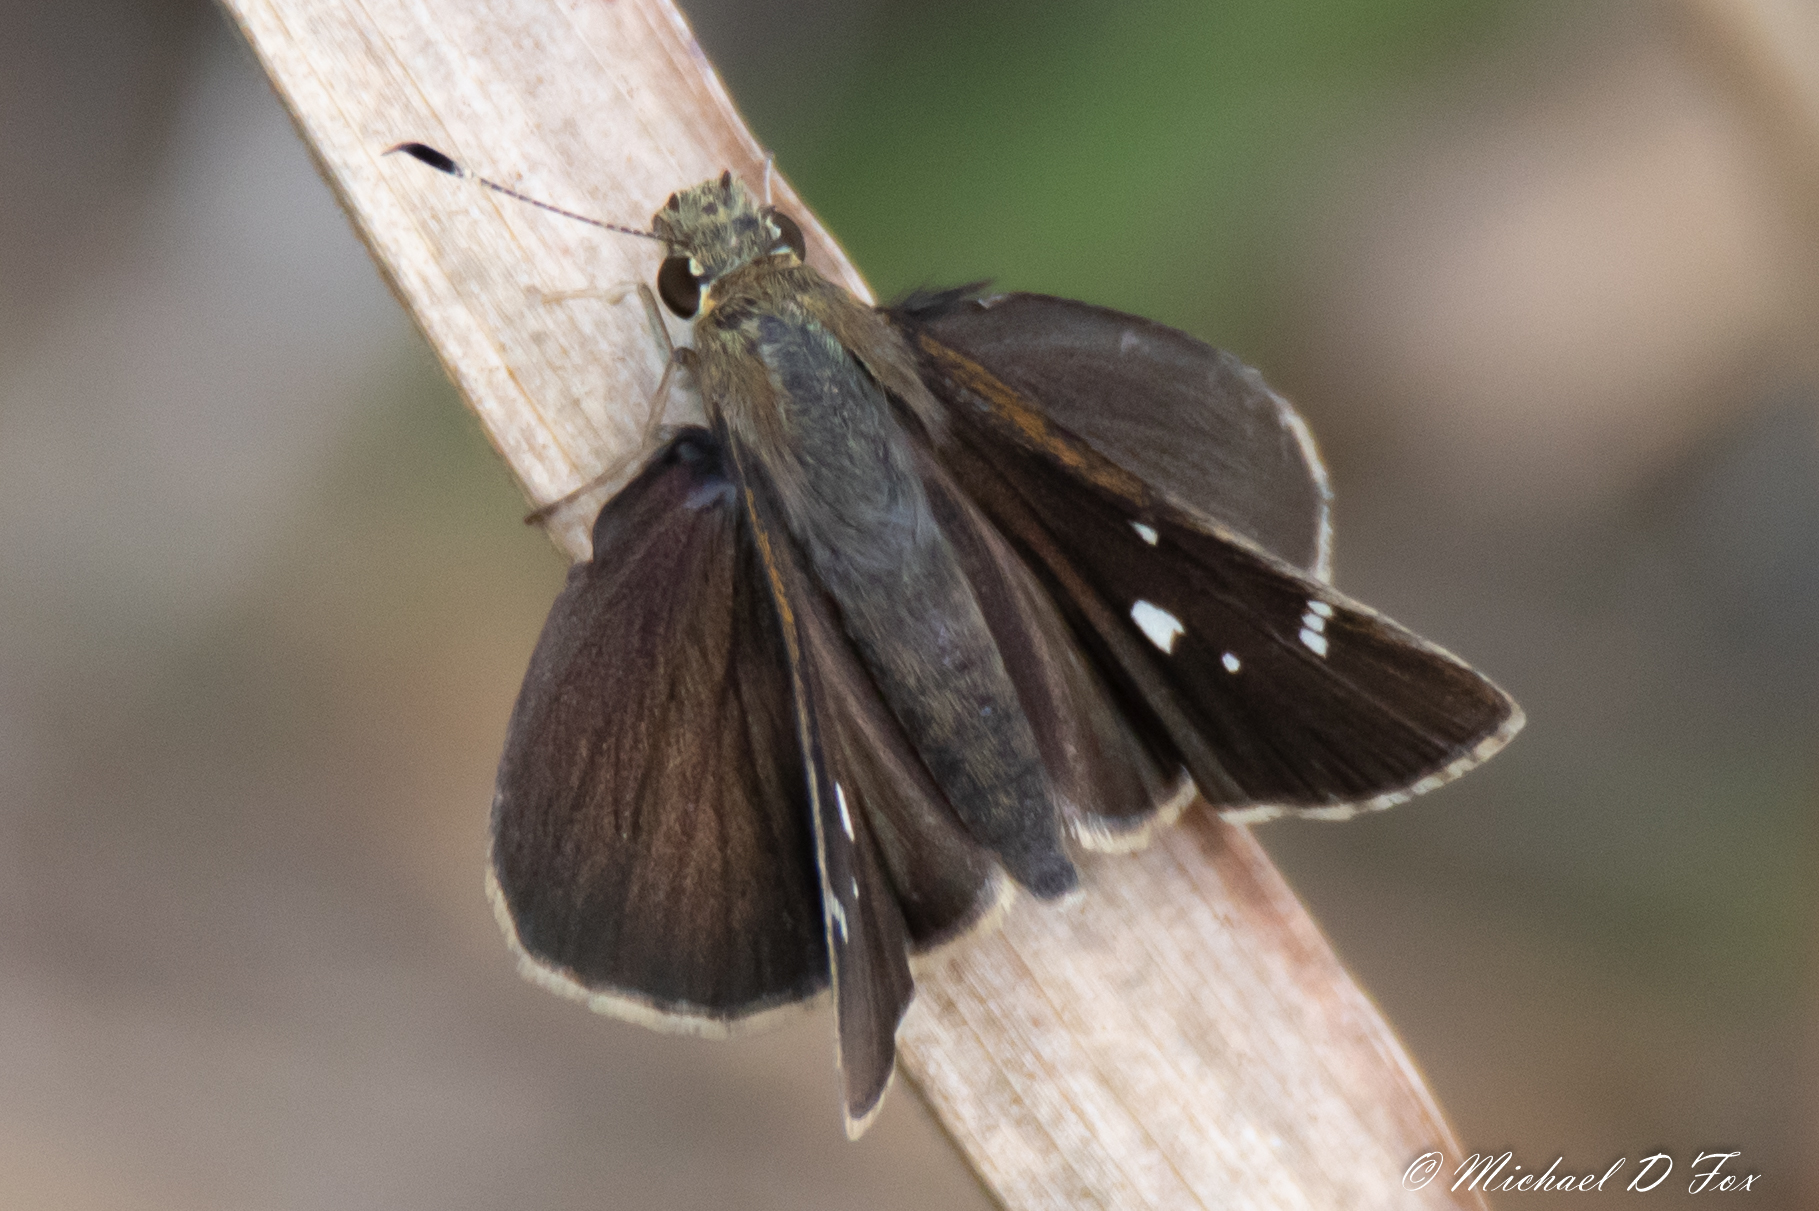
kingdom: Animalia
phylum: Arthropoda
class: Insecta
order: Lepidoptera
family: Hesperiidae
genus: Lerema
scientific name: Lerema accius
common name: Clouded skipper
